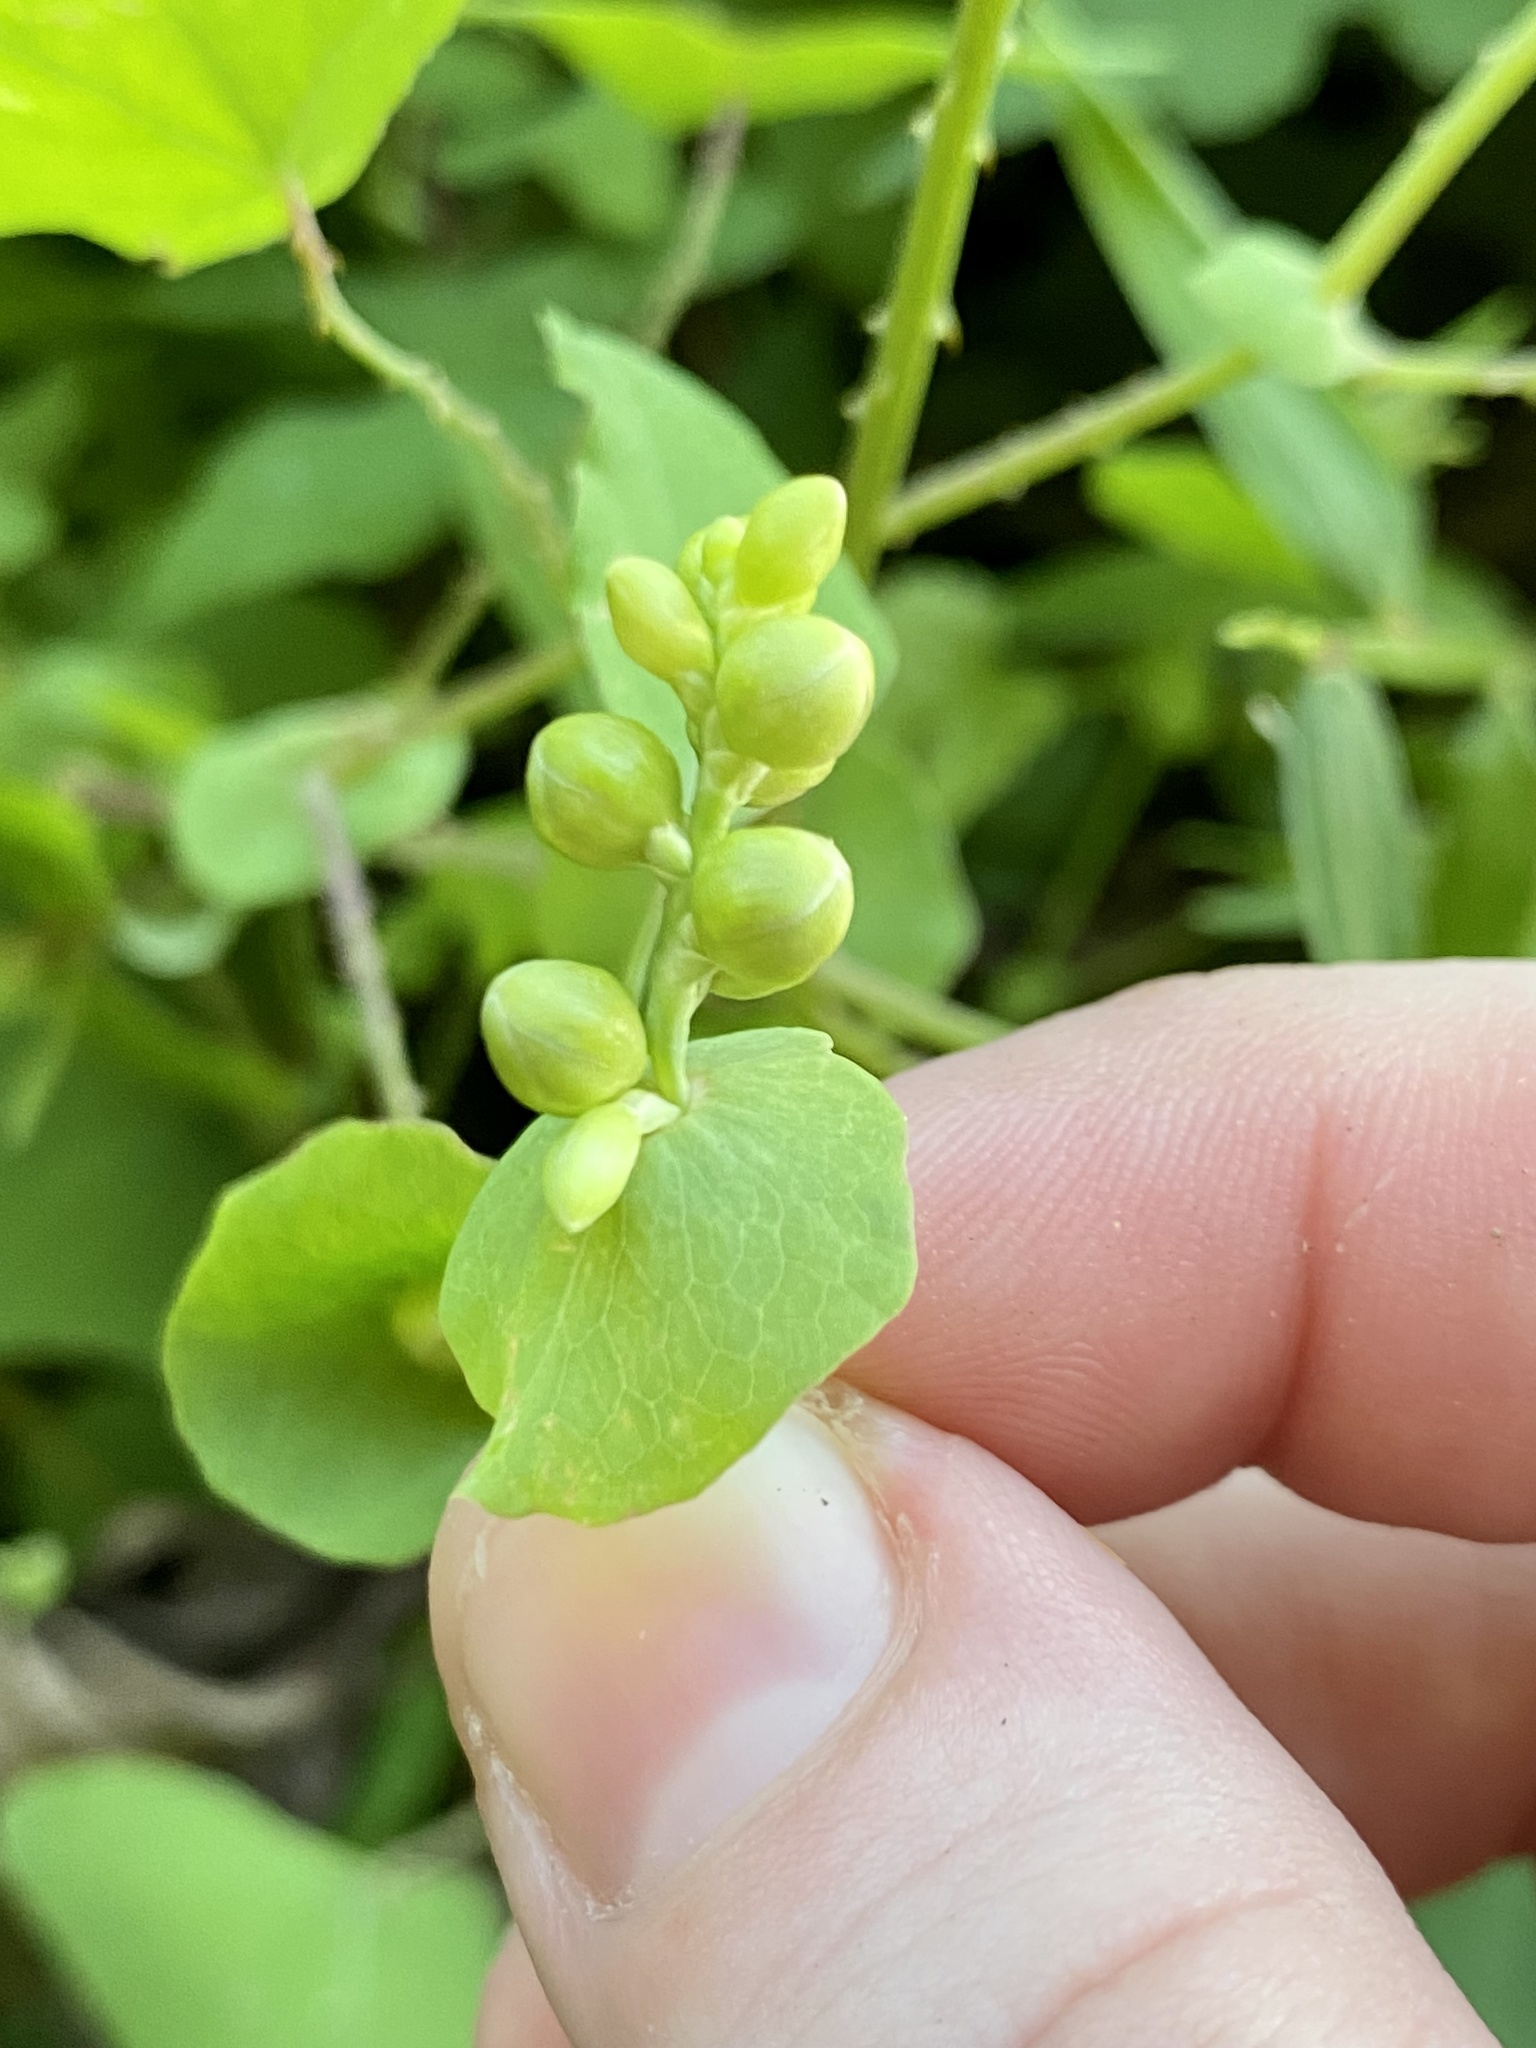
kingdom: Plantae
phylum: Tracheophyta
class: Magnoliopsida
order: Caryophyllales
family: Polygonaceae
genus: Persicaria
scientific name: Persicaria perfoliata
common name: Asiatic tearthumb
